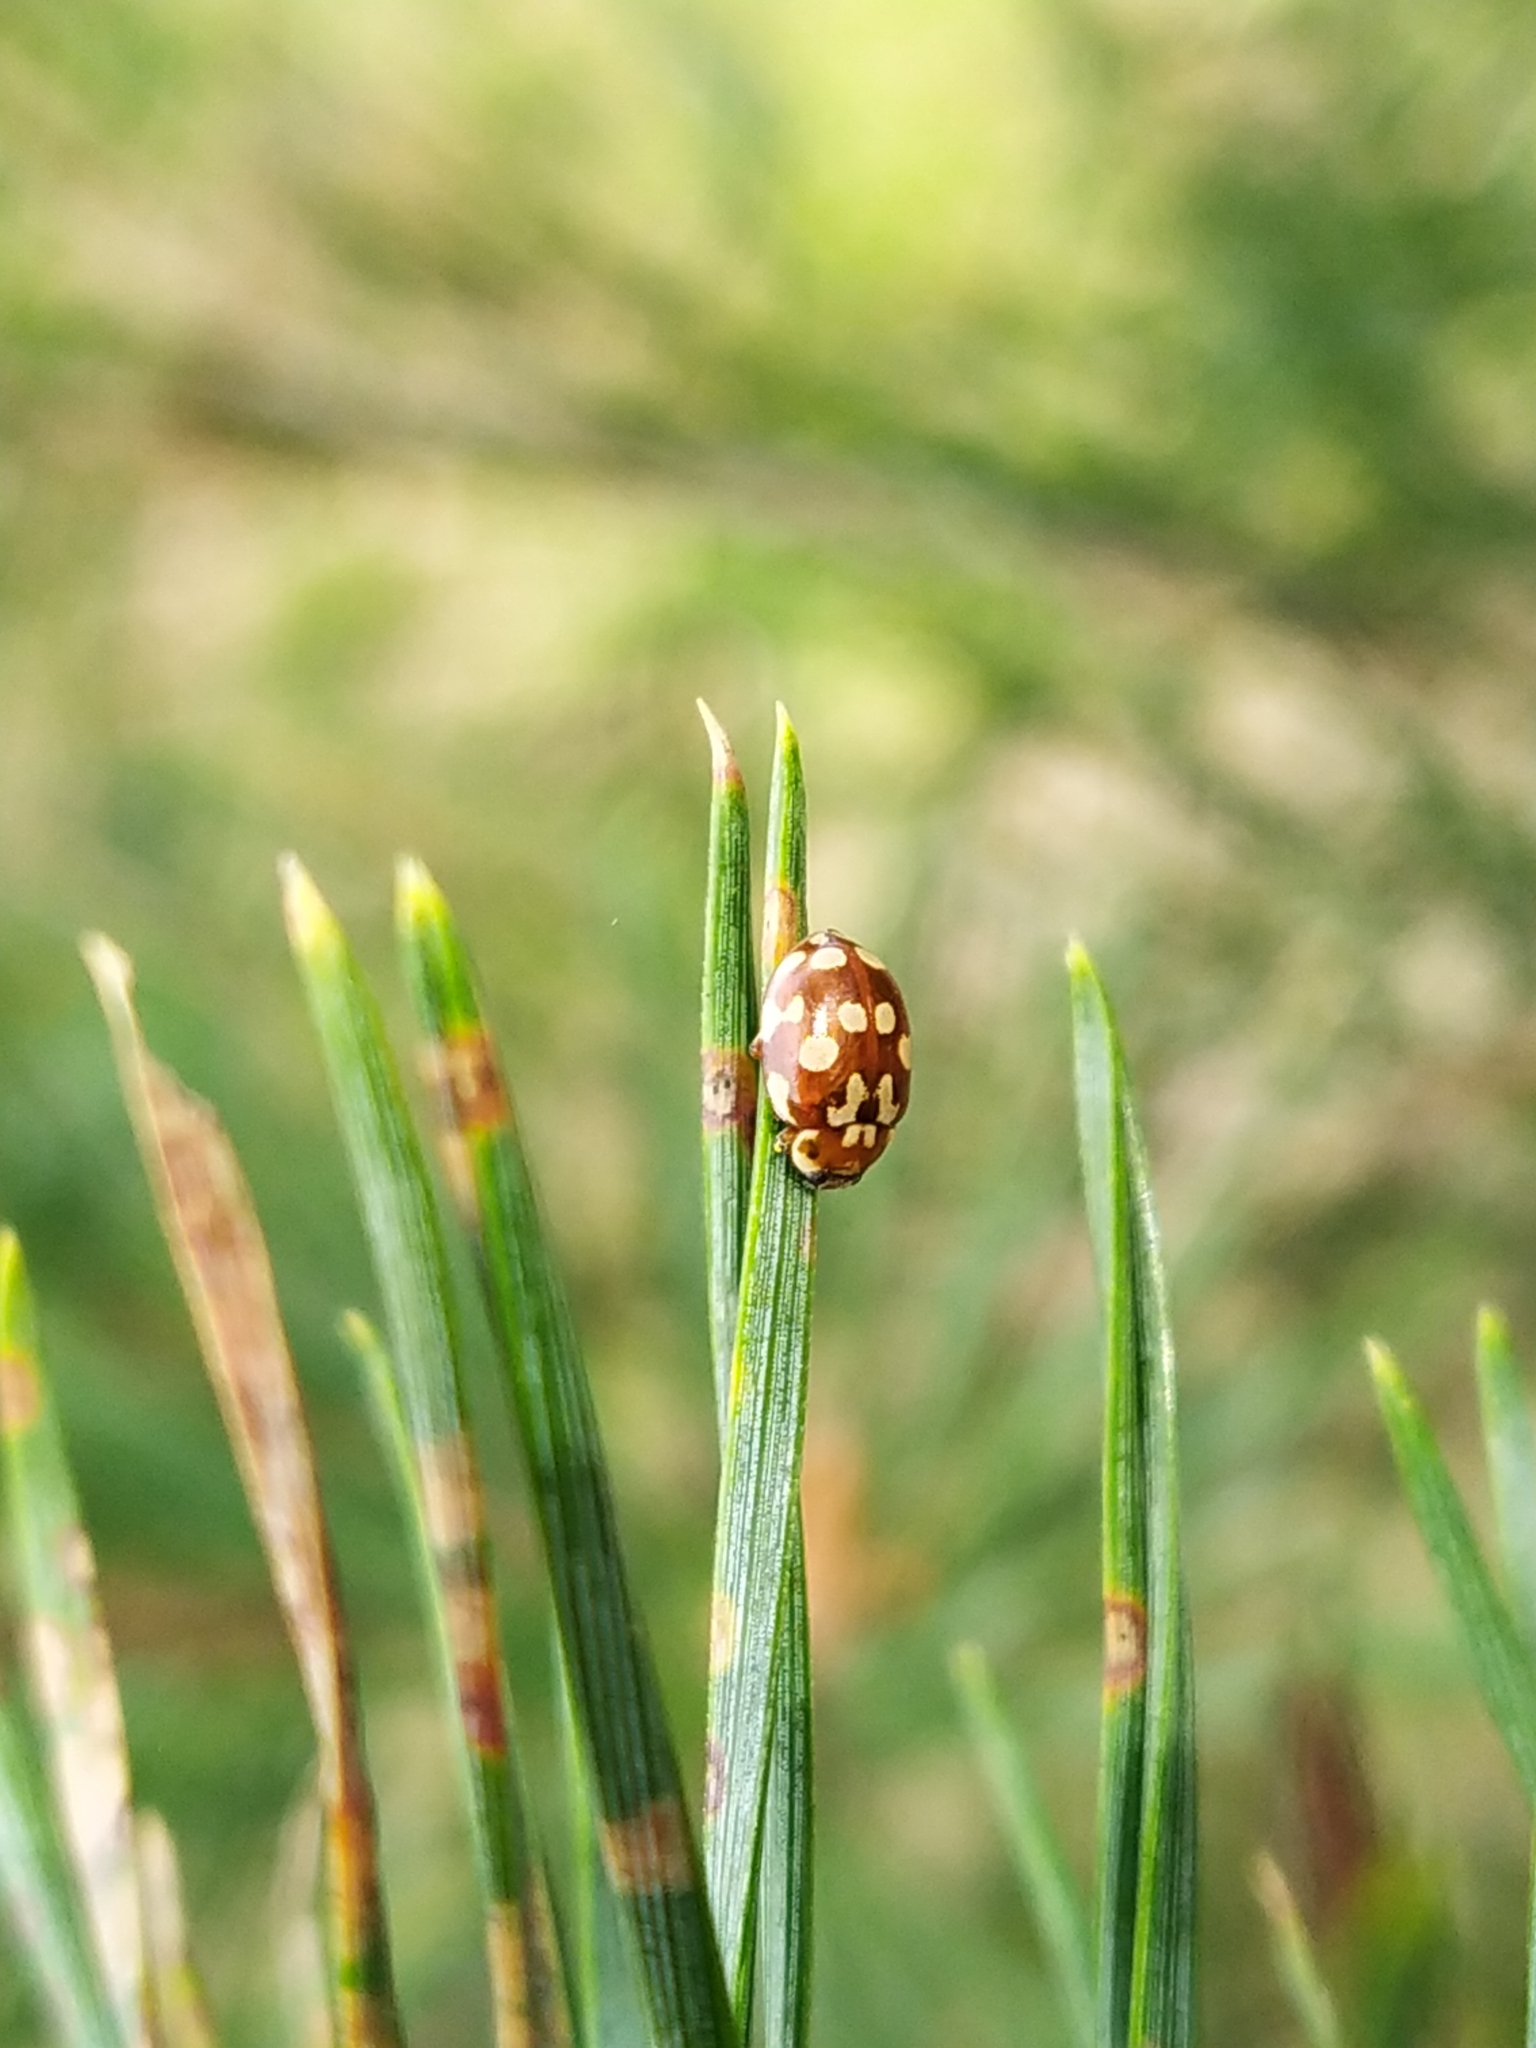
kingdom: Animalia
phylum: Arthropoda
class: Insecta
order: Coleoptera
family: Coccinellidae
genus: Myrrha
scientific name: Myrrha octodecimguttata
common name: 18-spot ladybird
